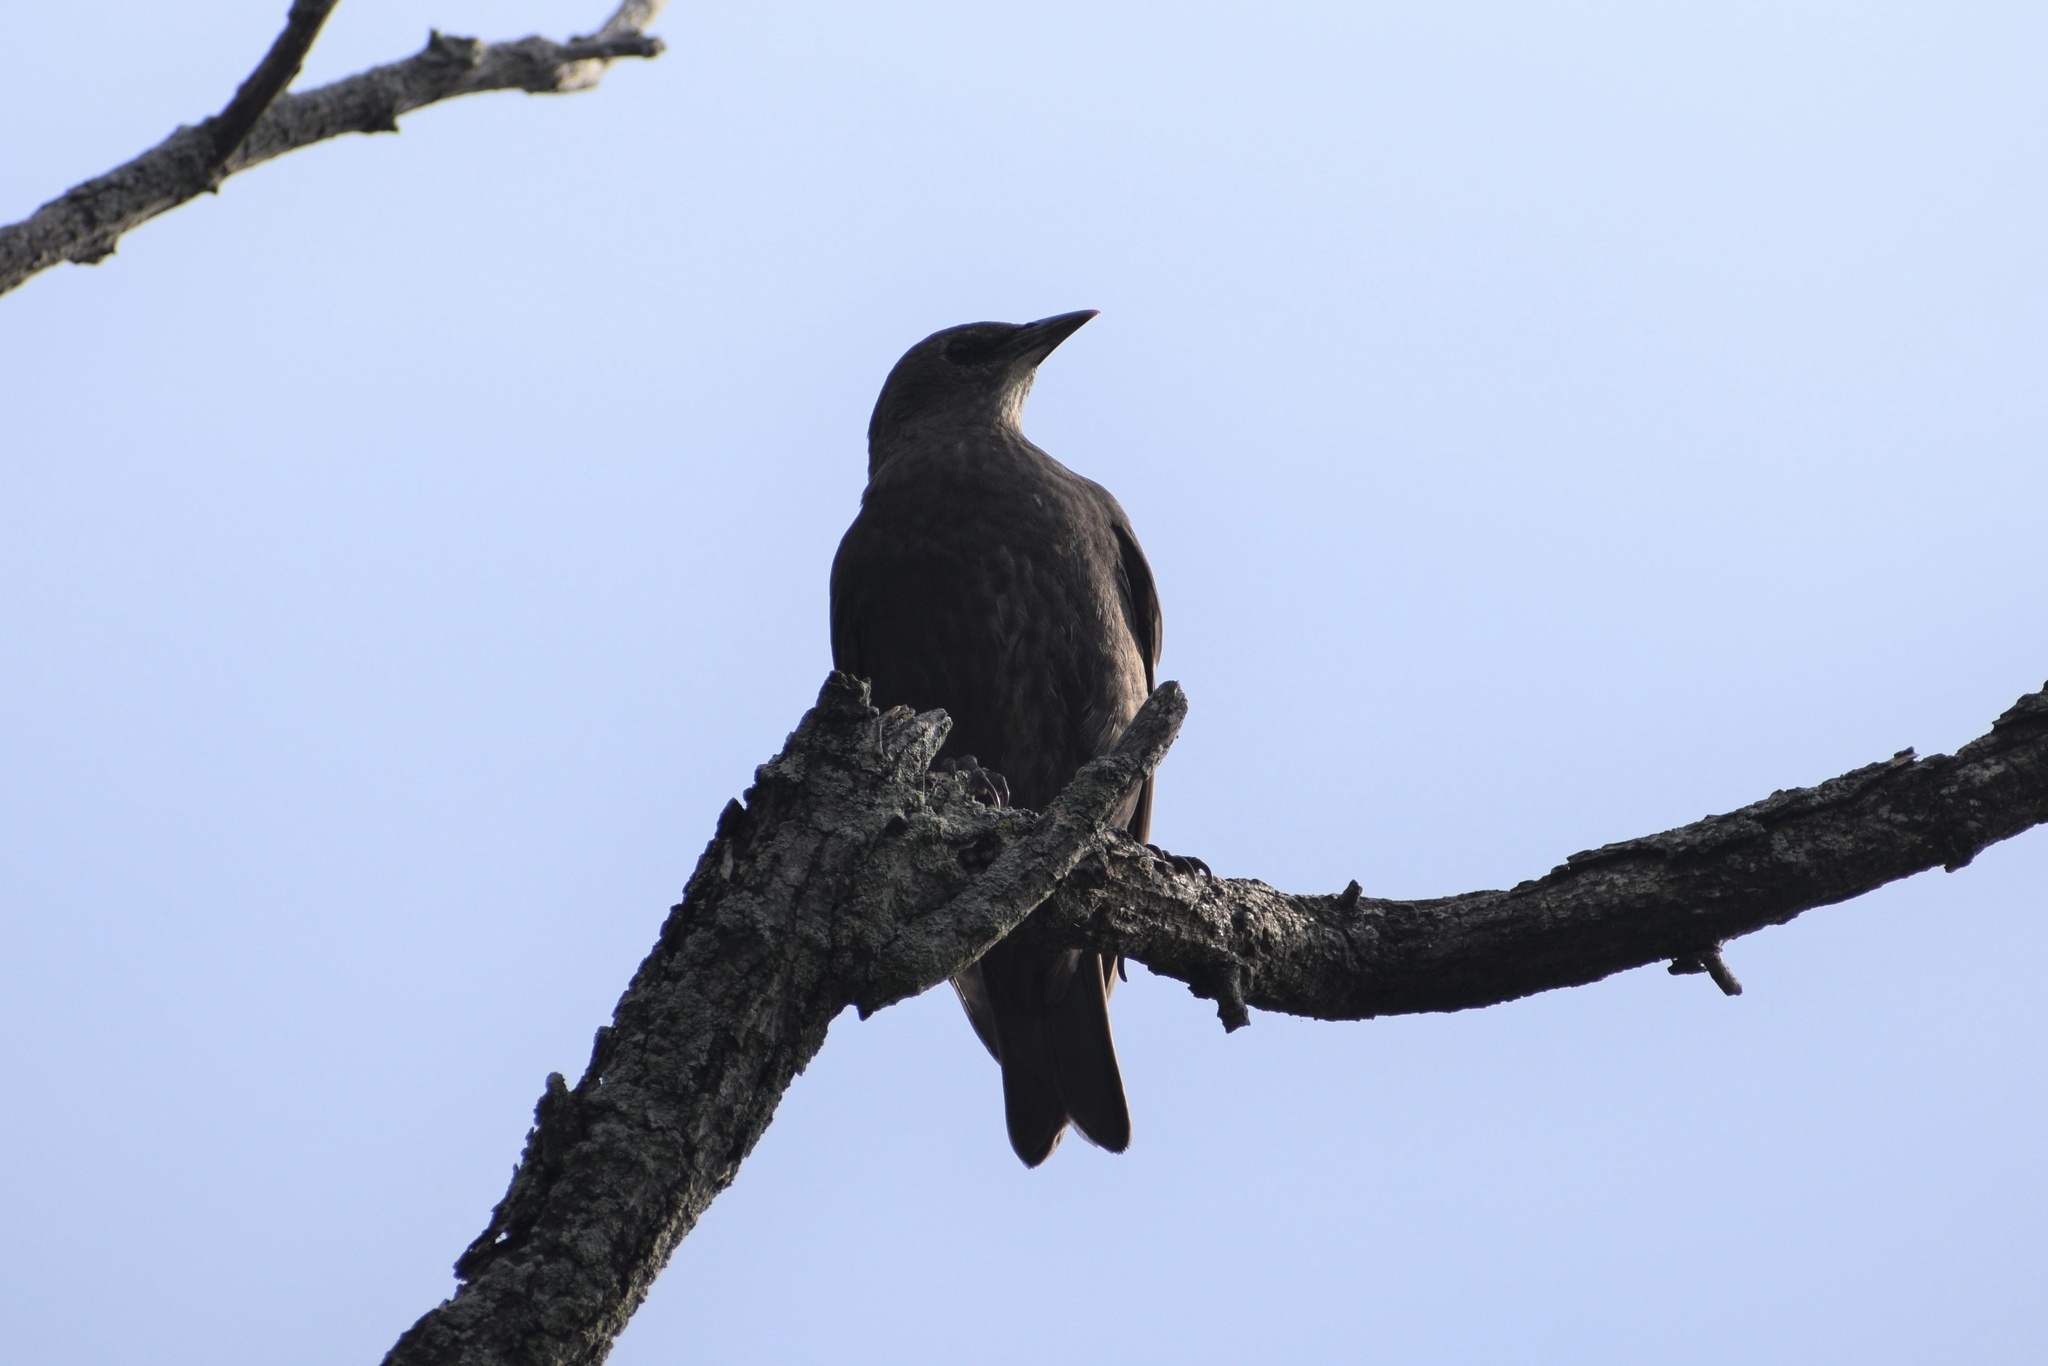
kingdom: Animalia
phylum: Chordata
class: Aves
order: Passeriformes
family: Sturnidae
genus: Sturnus
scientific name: Sturnus vulgaris
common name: Common starling
